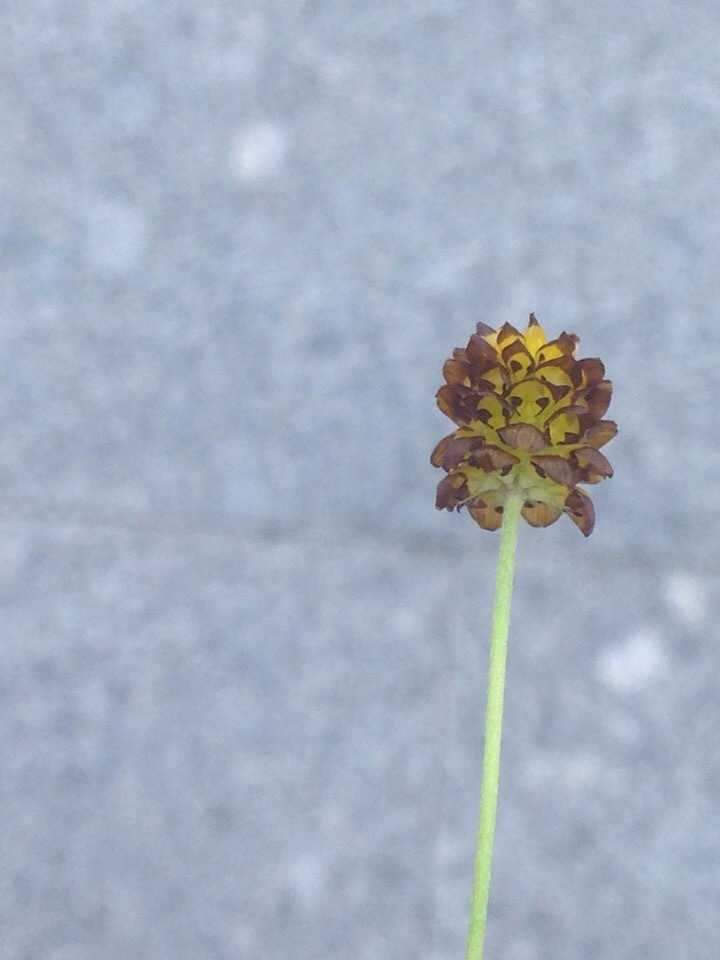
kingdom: Plantae
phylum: Tracheophyta
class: Magnoliopsida
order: Fabales
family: Fabaceae
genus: Trifolium
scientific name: Trifolium spadiceum
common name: Brown moor clover
